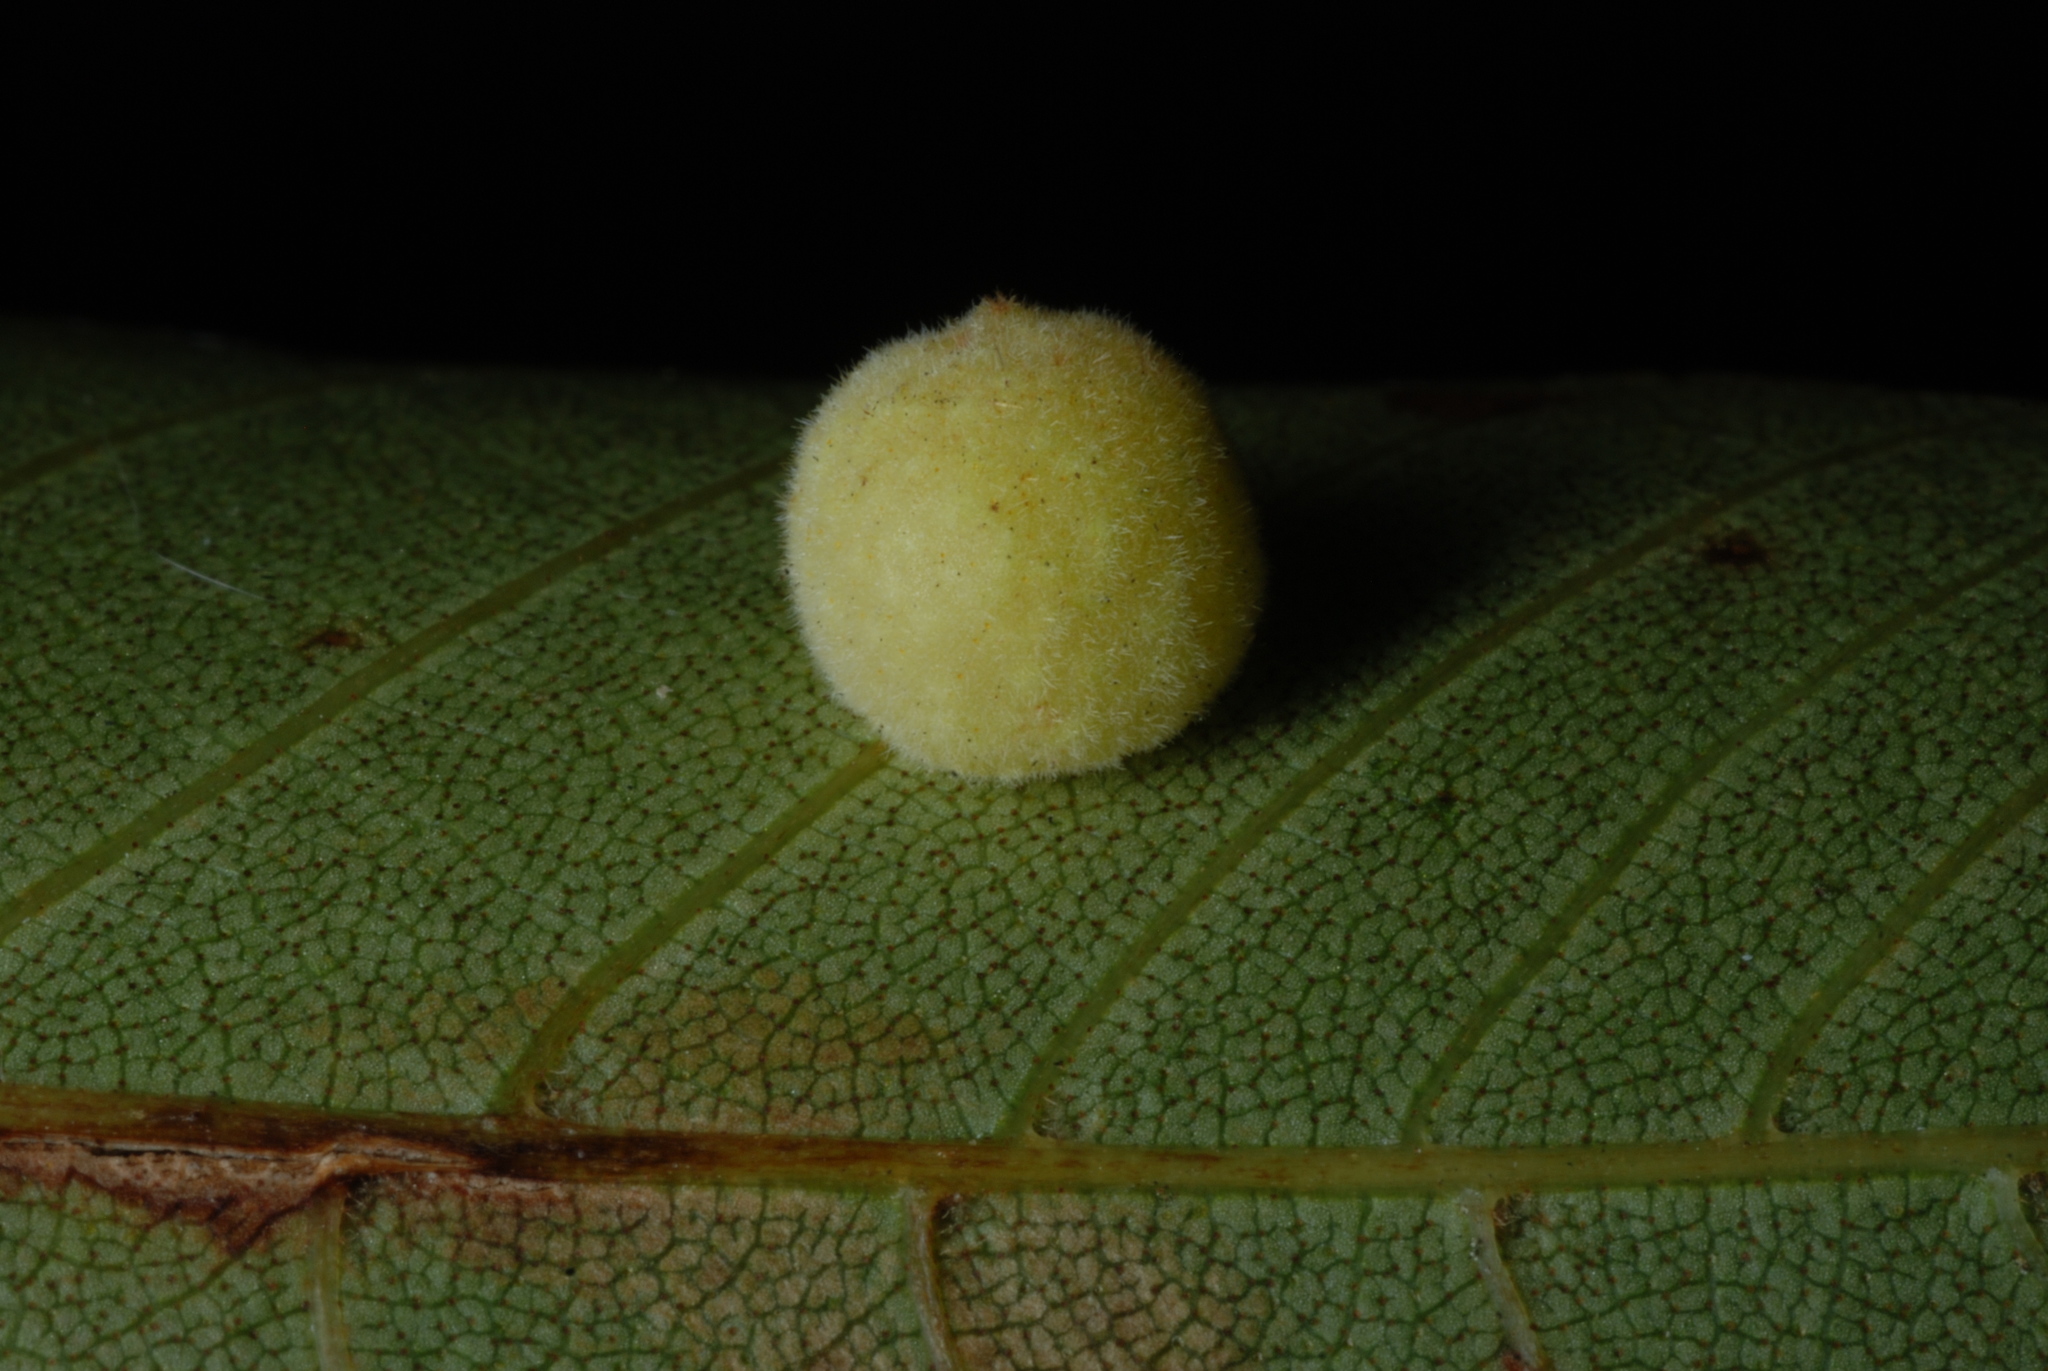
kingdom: Animalia
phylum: Arthropoda
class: Insecta
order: Diptera
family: Cecidomyiidae
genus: Caryomyia
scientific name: Caryomyia persicoides
